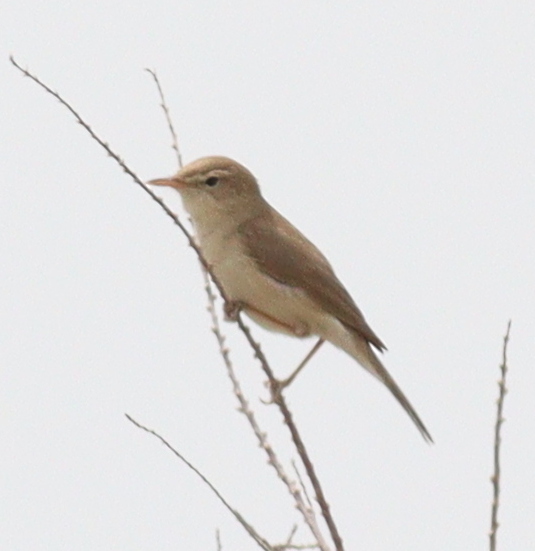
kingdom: Animalia
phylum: Chordata
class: Aves
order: Passeriformes
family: Acrocephalidae
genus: Iduna
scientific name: Iduna pallida
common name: Eastern olivaceous warbler
